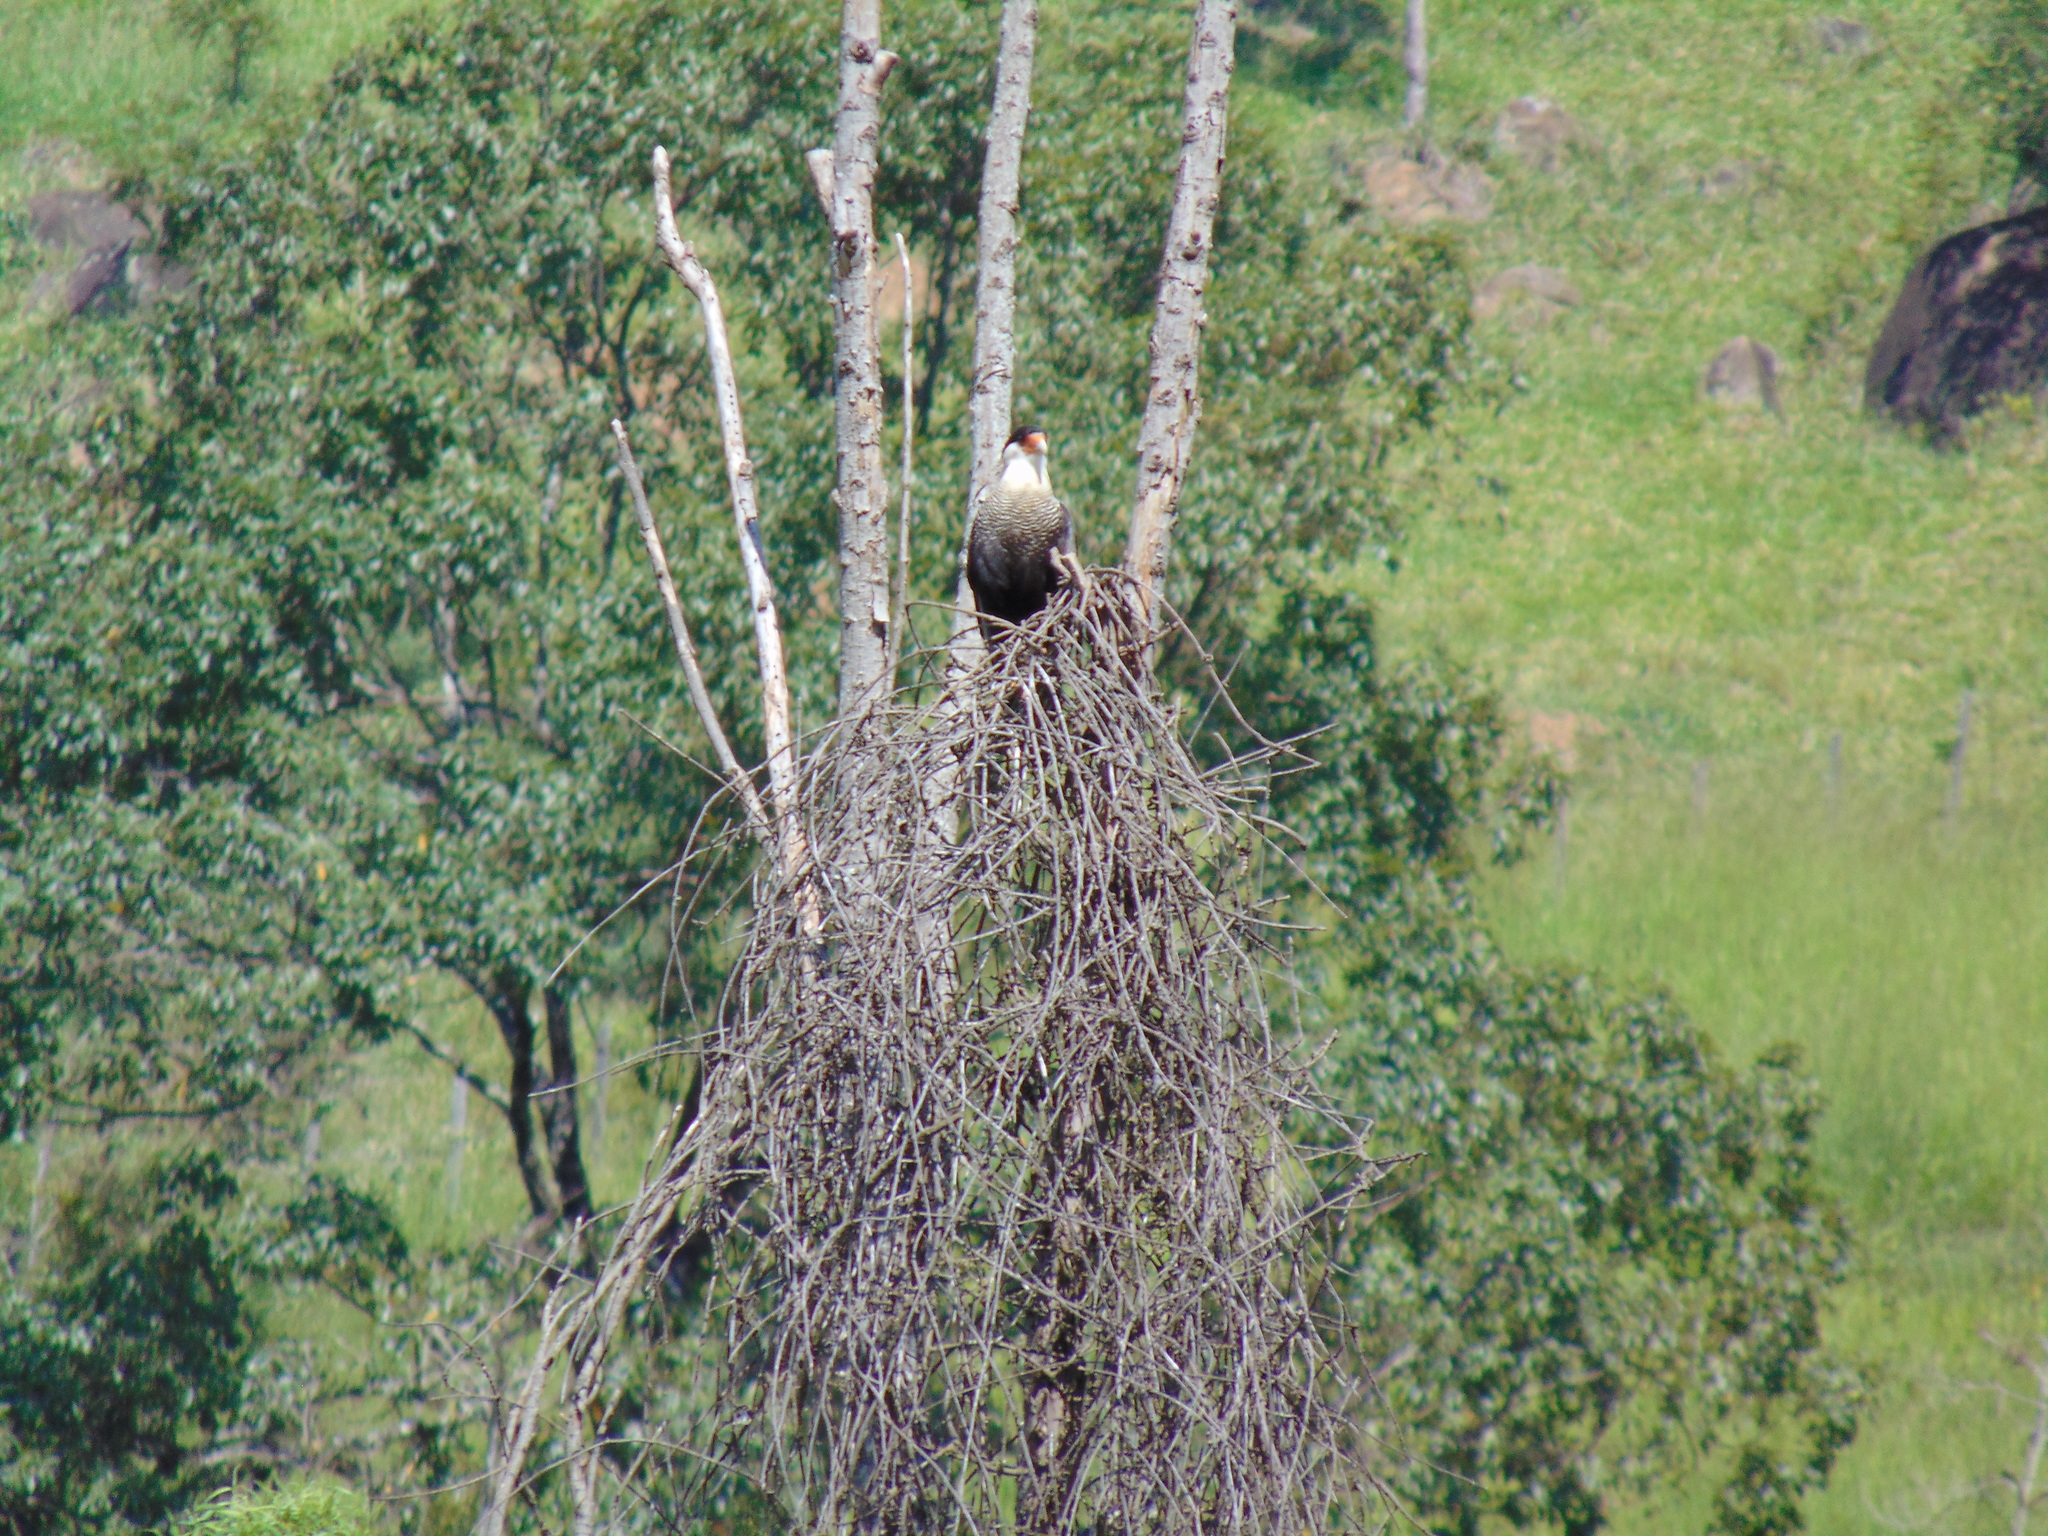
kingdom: Animalia
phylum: Chordata
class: Aves
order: Falconiformes
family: Falconidae
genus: Caracara
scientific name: Caracara plancus
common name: Southern caracara
